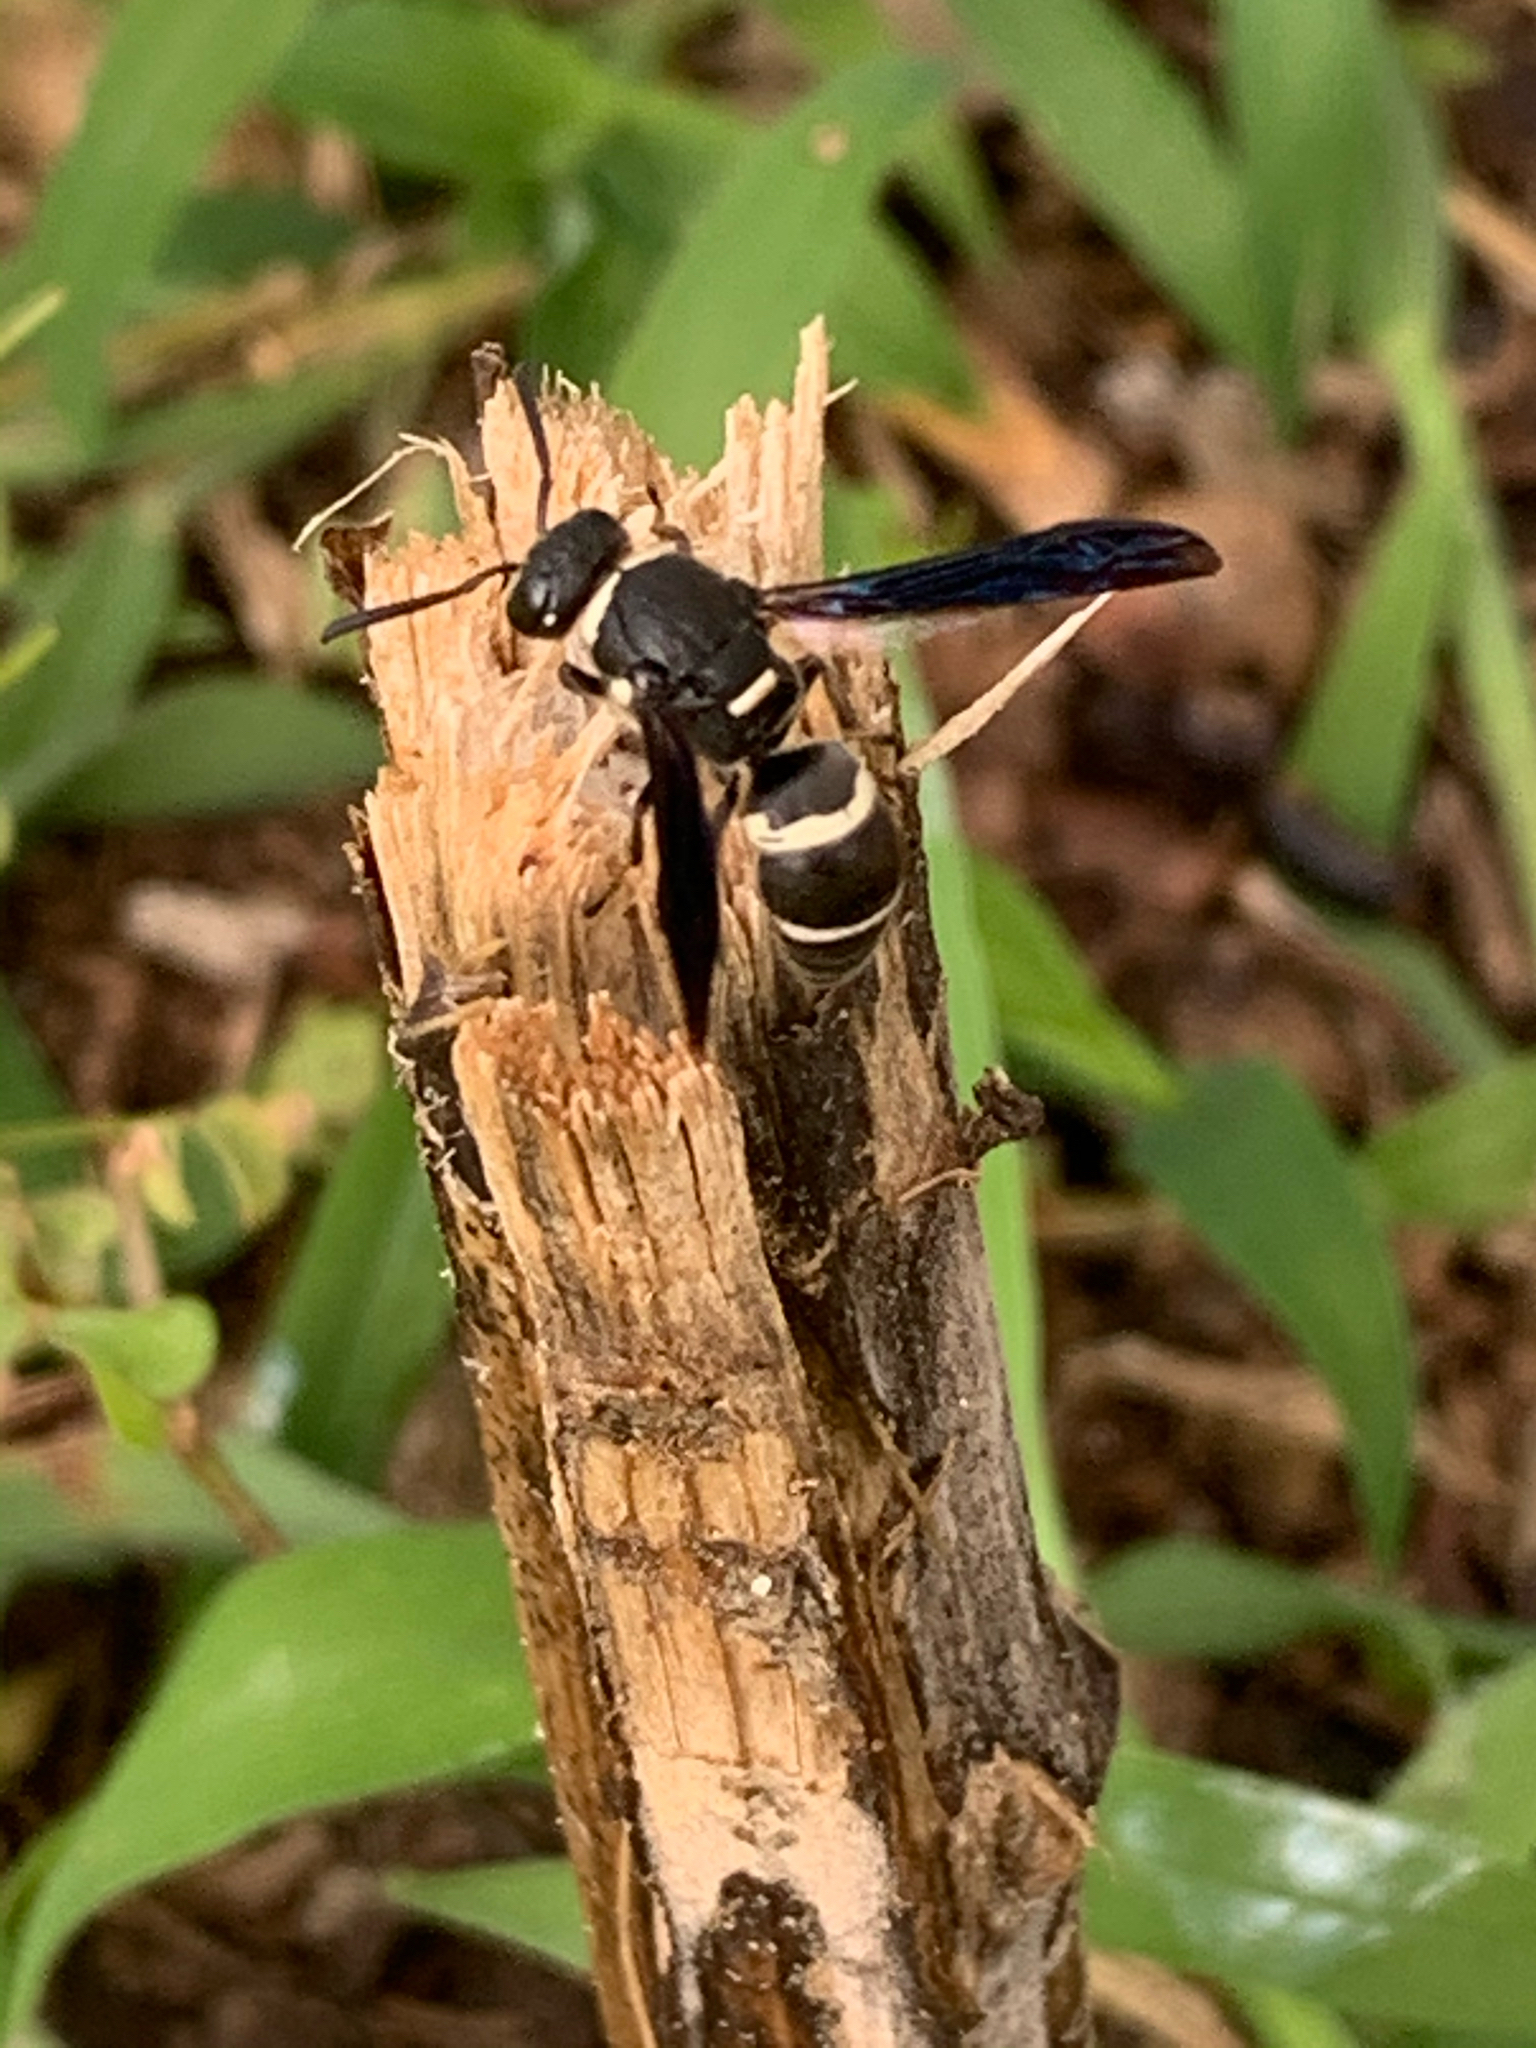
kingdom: Animalia
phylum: Arthropoda
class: Insecta
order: Hymenoptera
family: Eumenidae
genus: Euodynerus
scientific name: Euodynerus megaera
